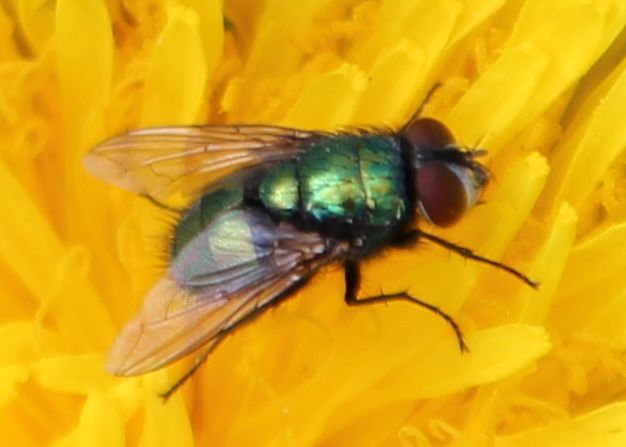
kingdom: Animalia
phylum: Arthropoda
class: Insecta
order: Diptera
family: Calliphoridae
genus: Lucilia
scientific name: Lucilia sericata
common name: Blow fly
